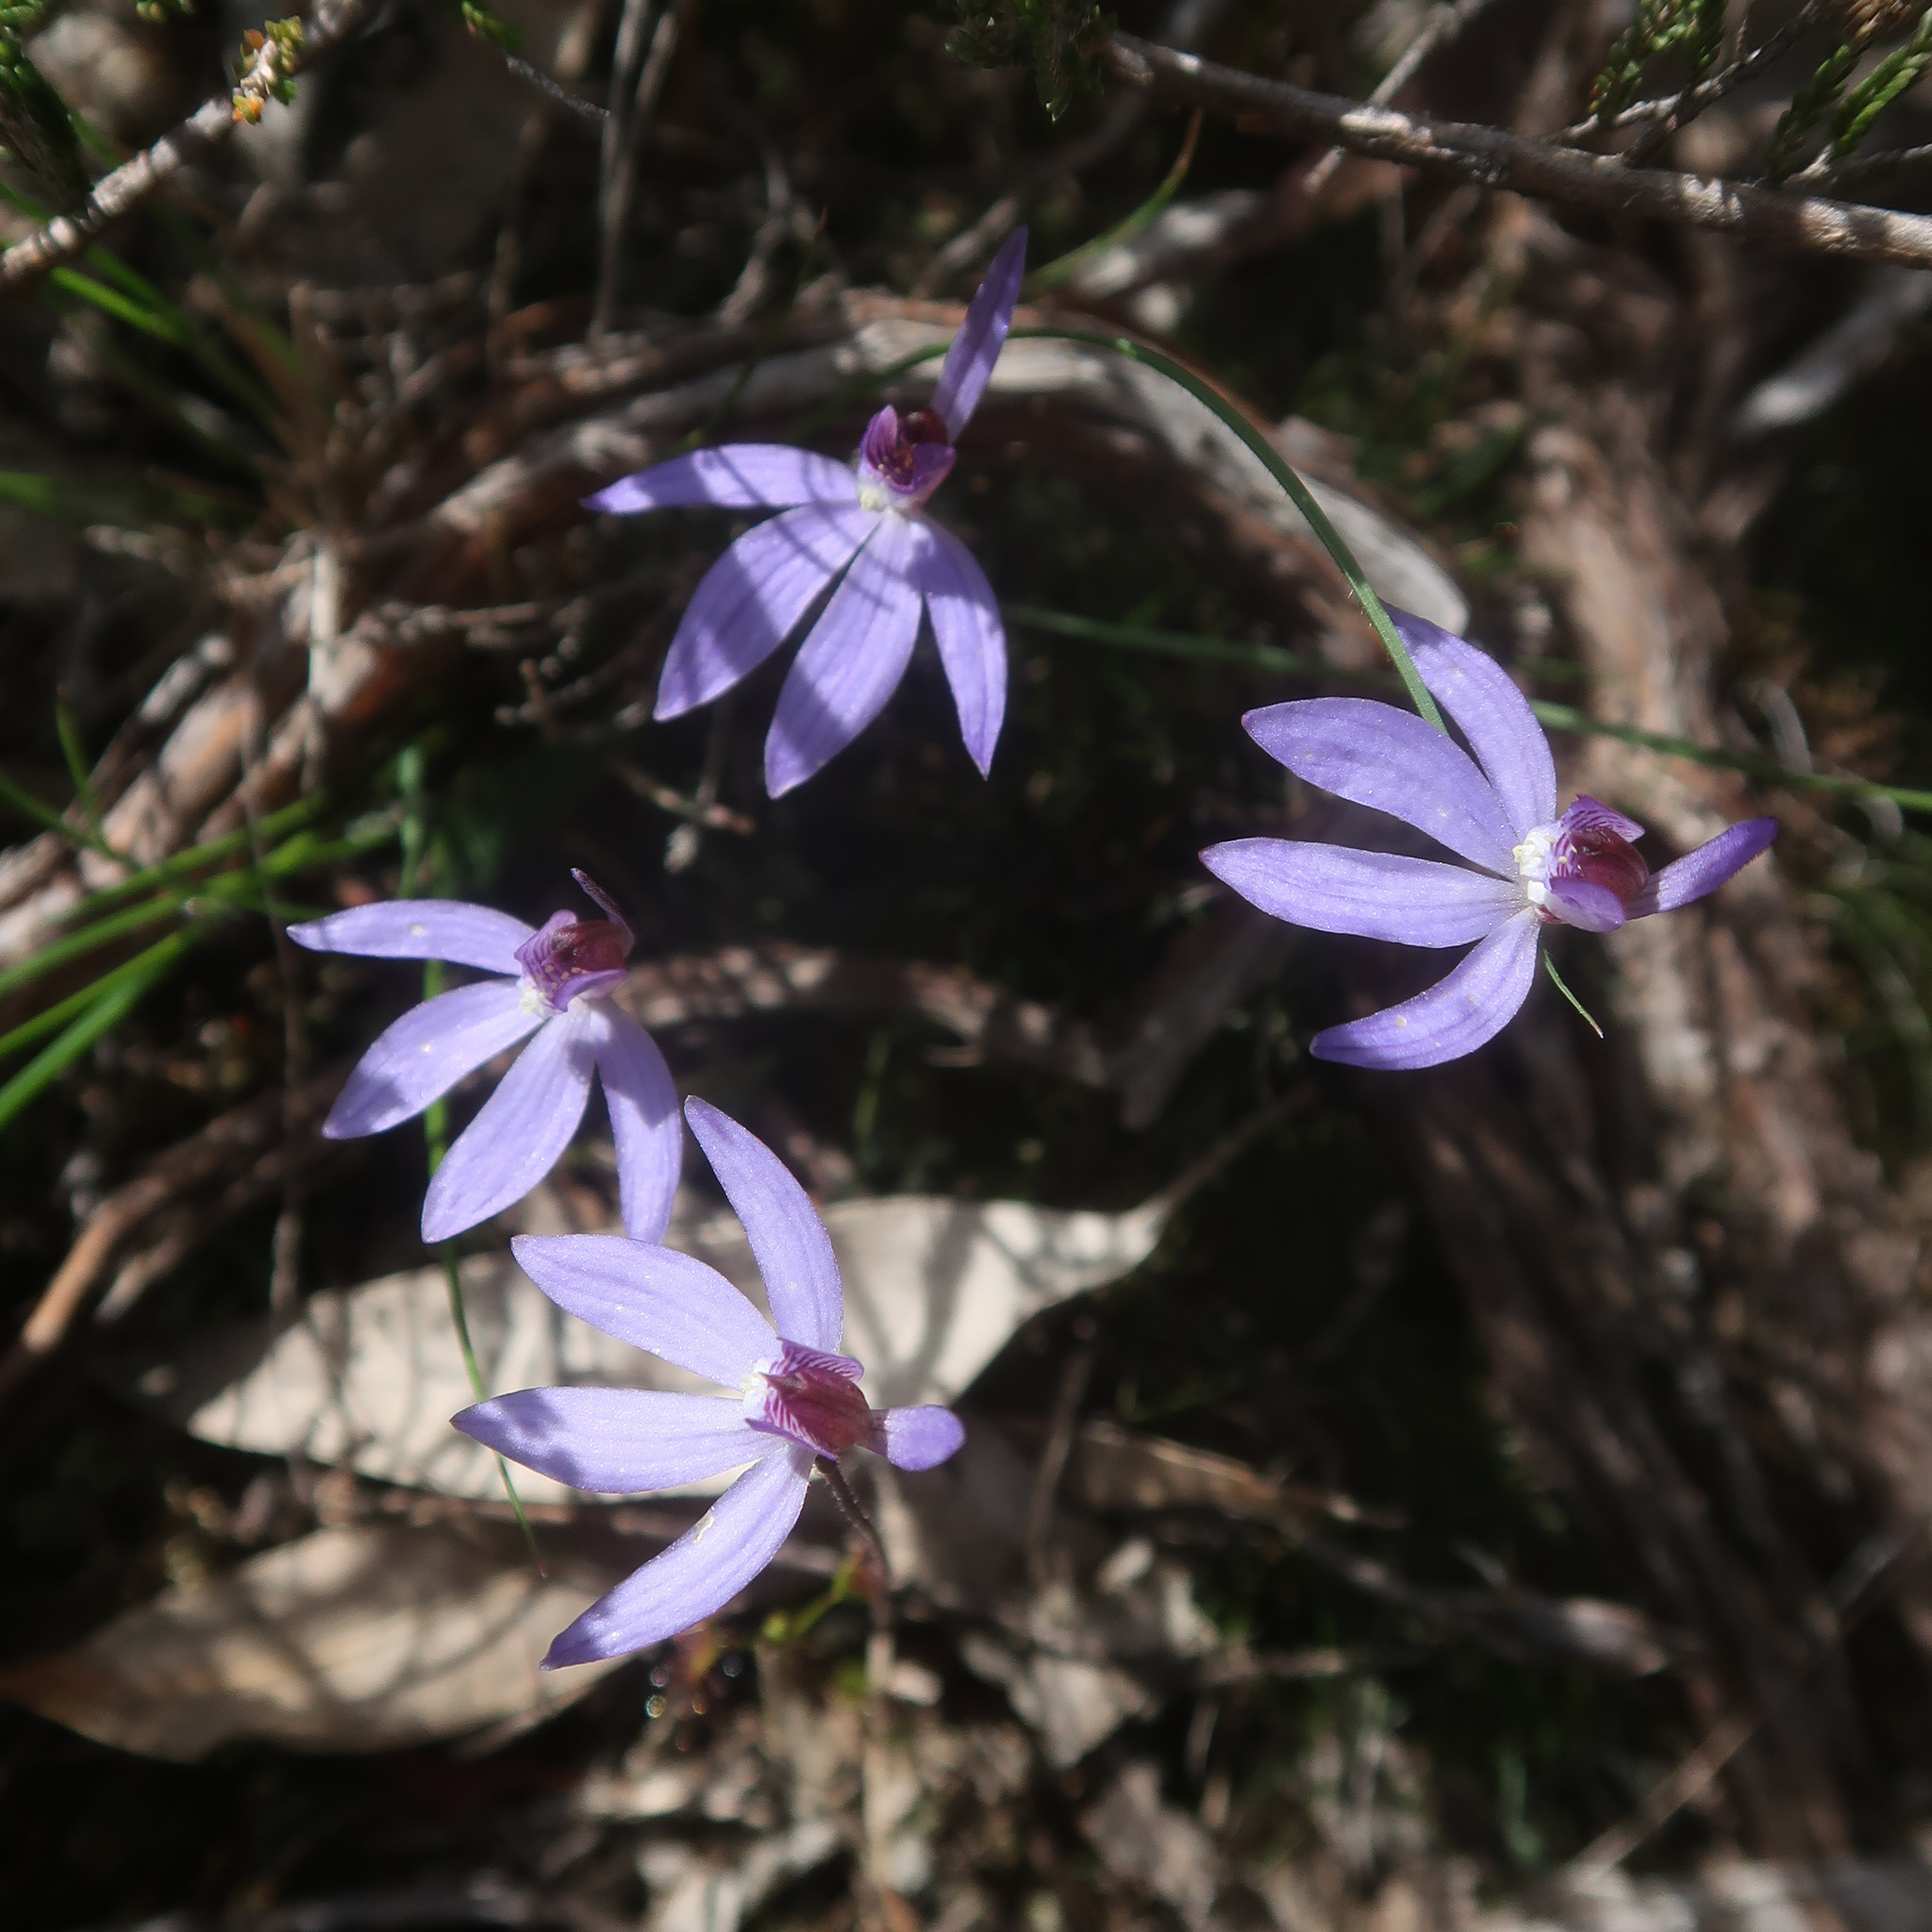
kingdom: Plantae
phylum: Tracheophyta
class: Liliopsida
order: Asparagales
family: Orchidaceae
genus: Caladenia
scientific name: Caladenia caerulea
